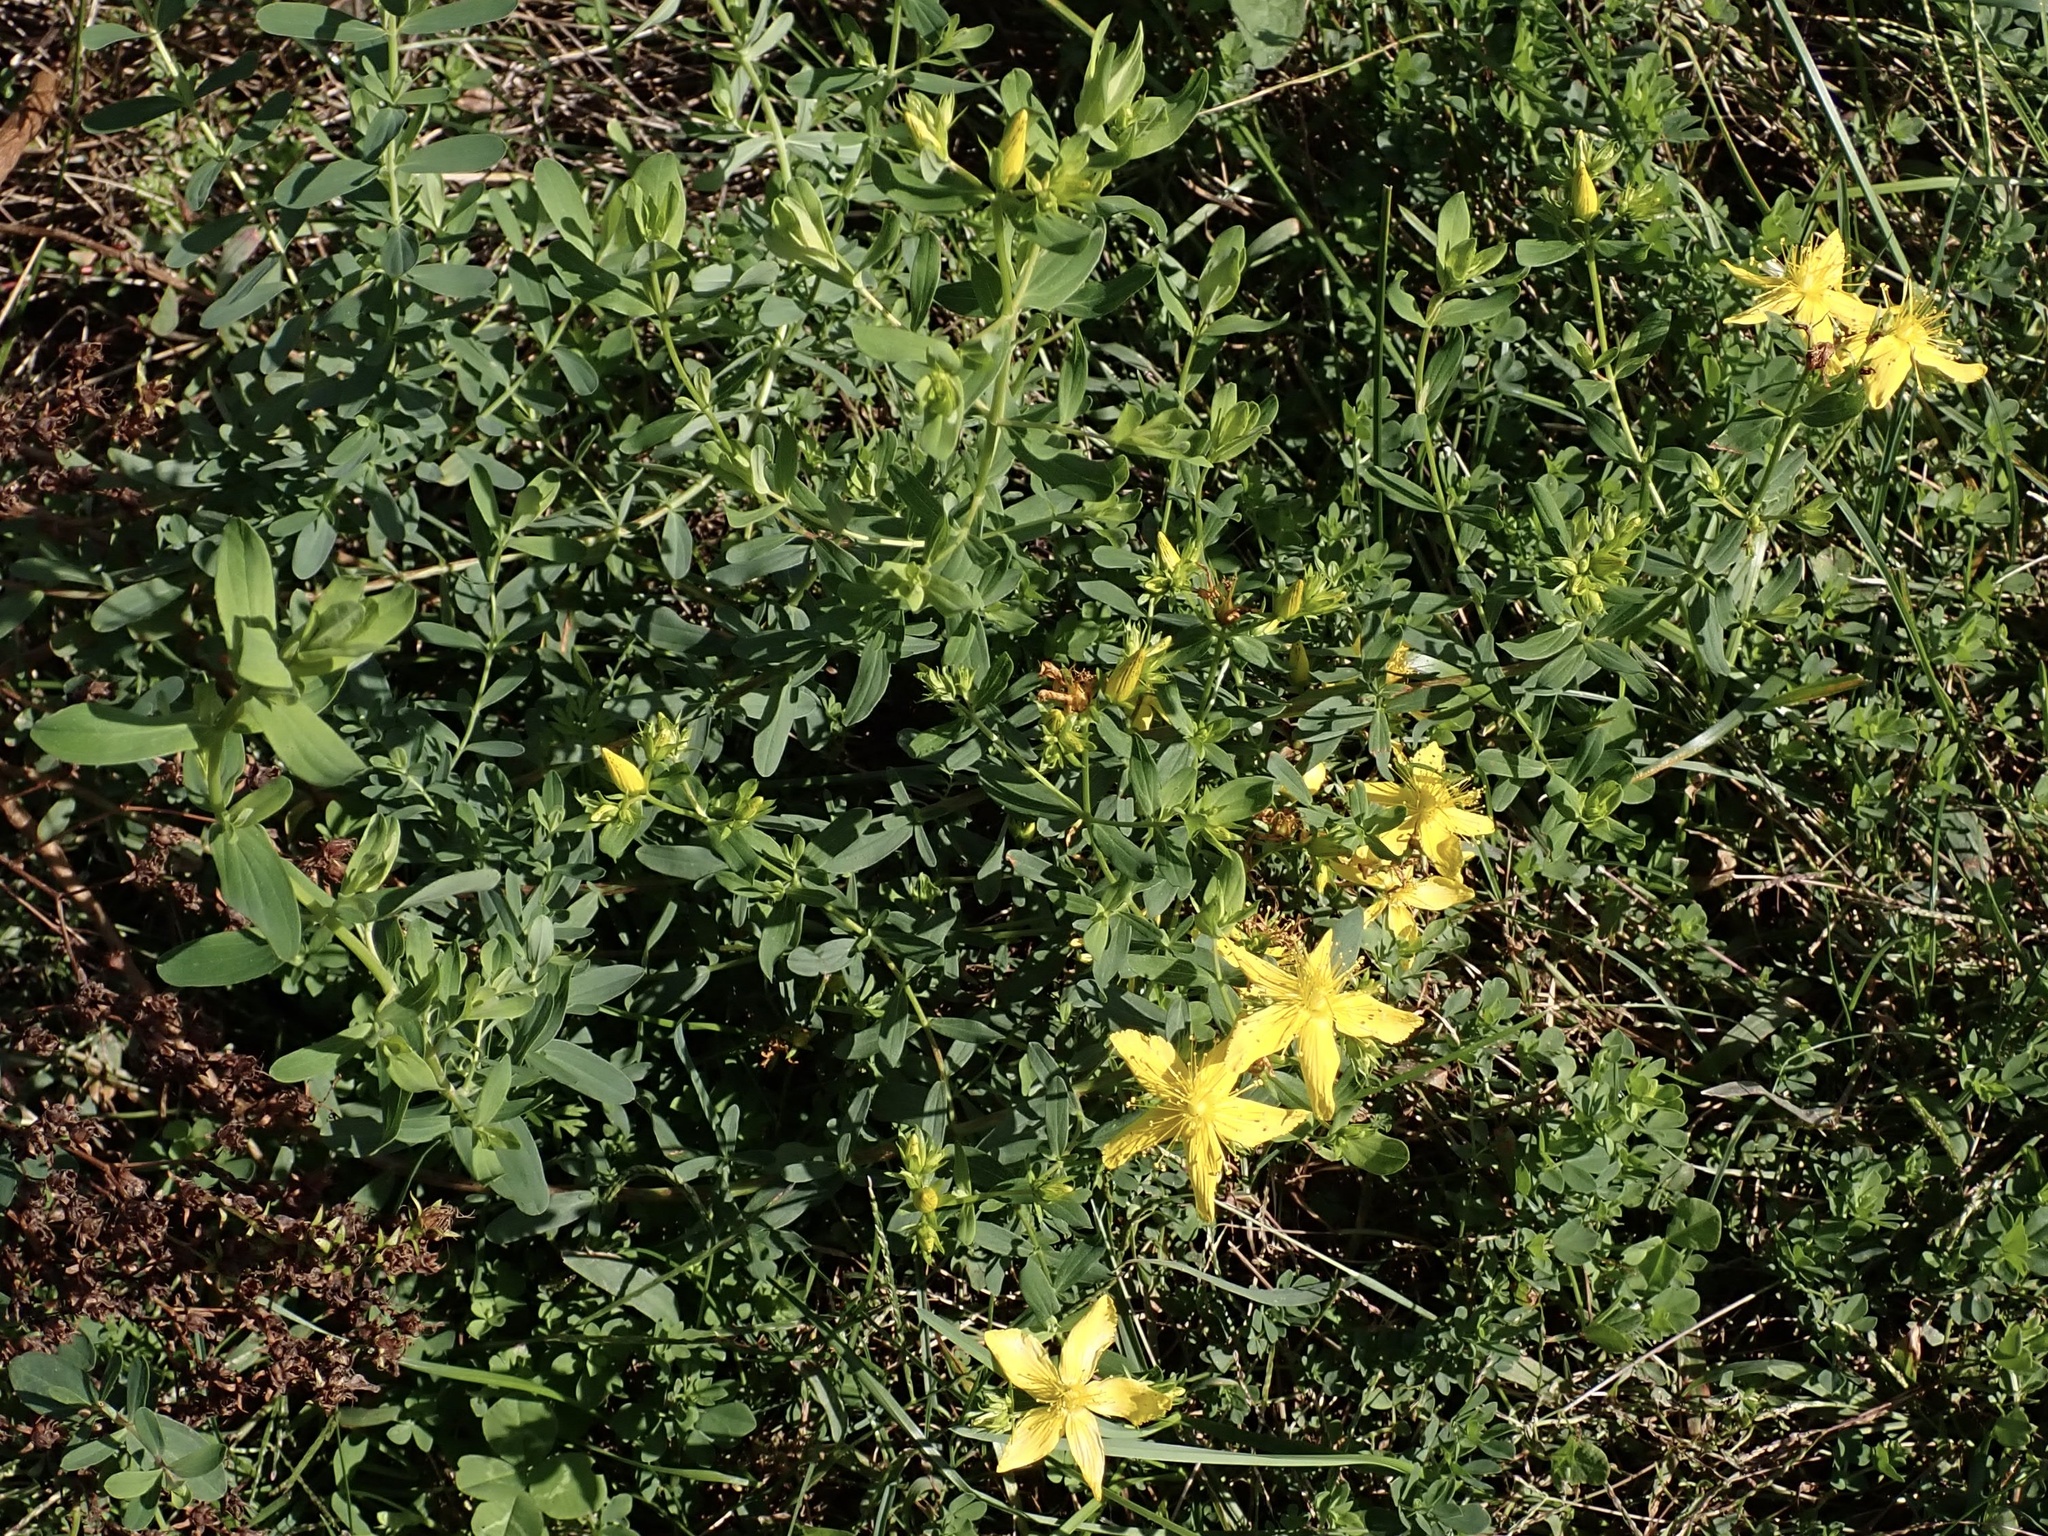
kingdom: Plantae
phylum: Tracheophyta
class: Magnoliopsida
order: Malpighiales
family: Hypericaceae
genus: Hypericum
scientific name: Hypericum perforatum
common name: Common st. johnswort
